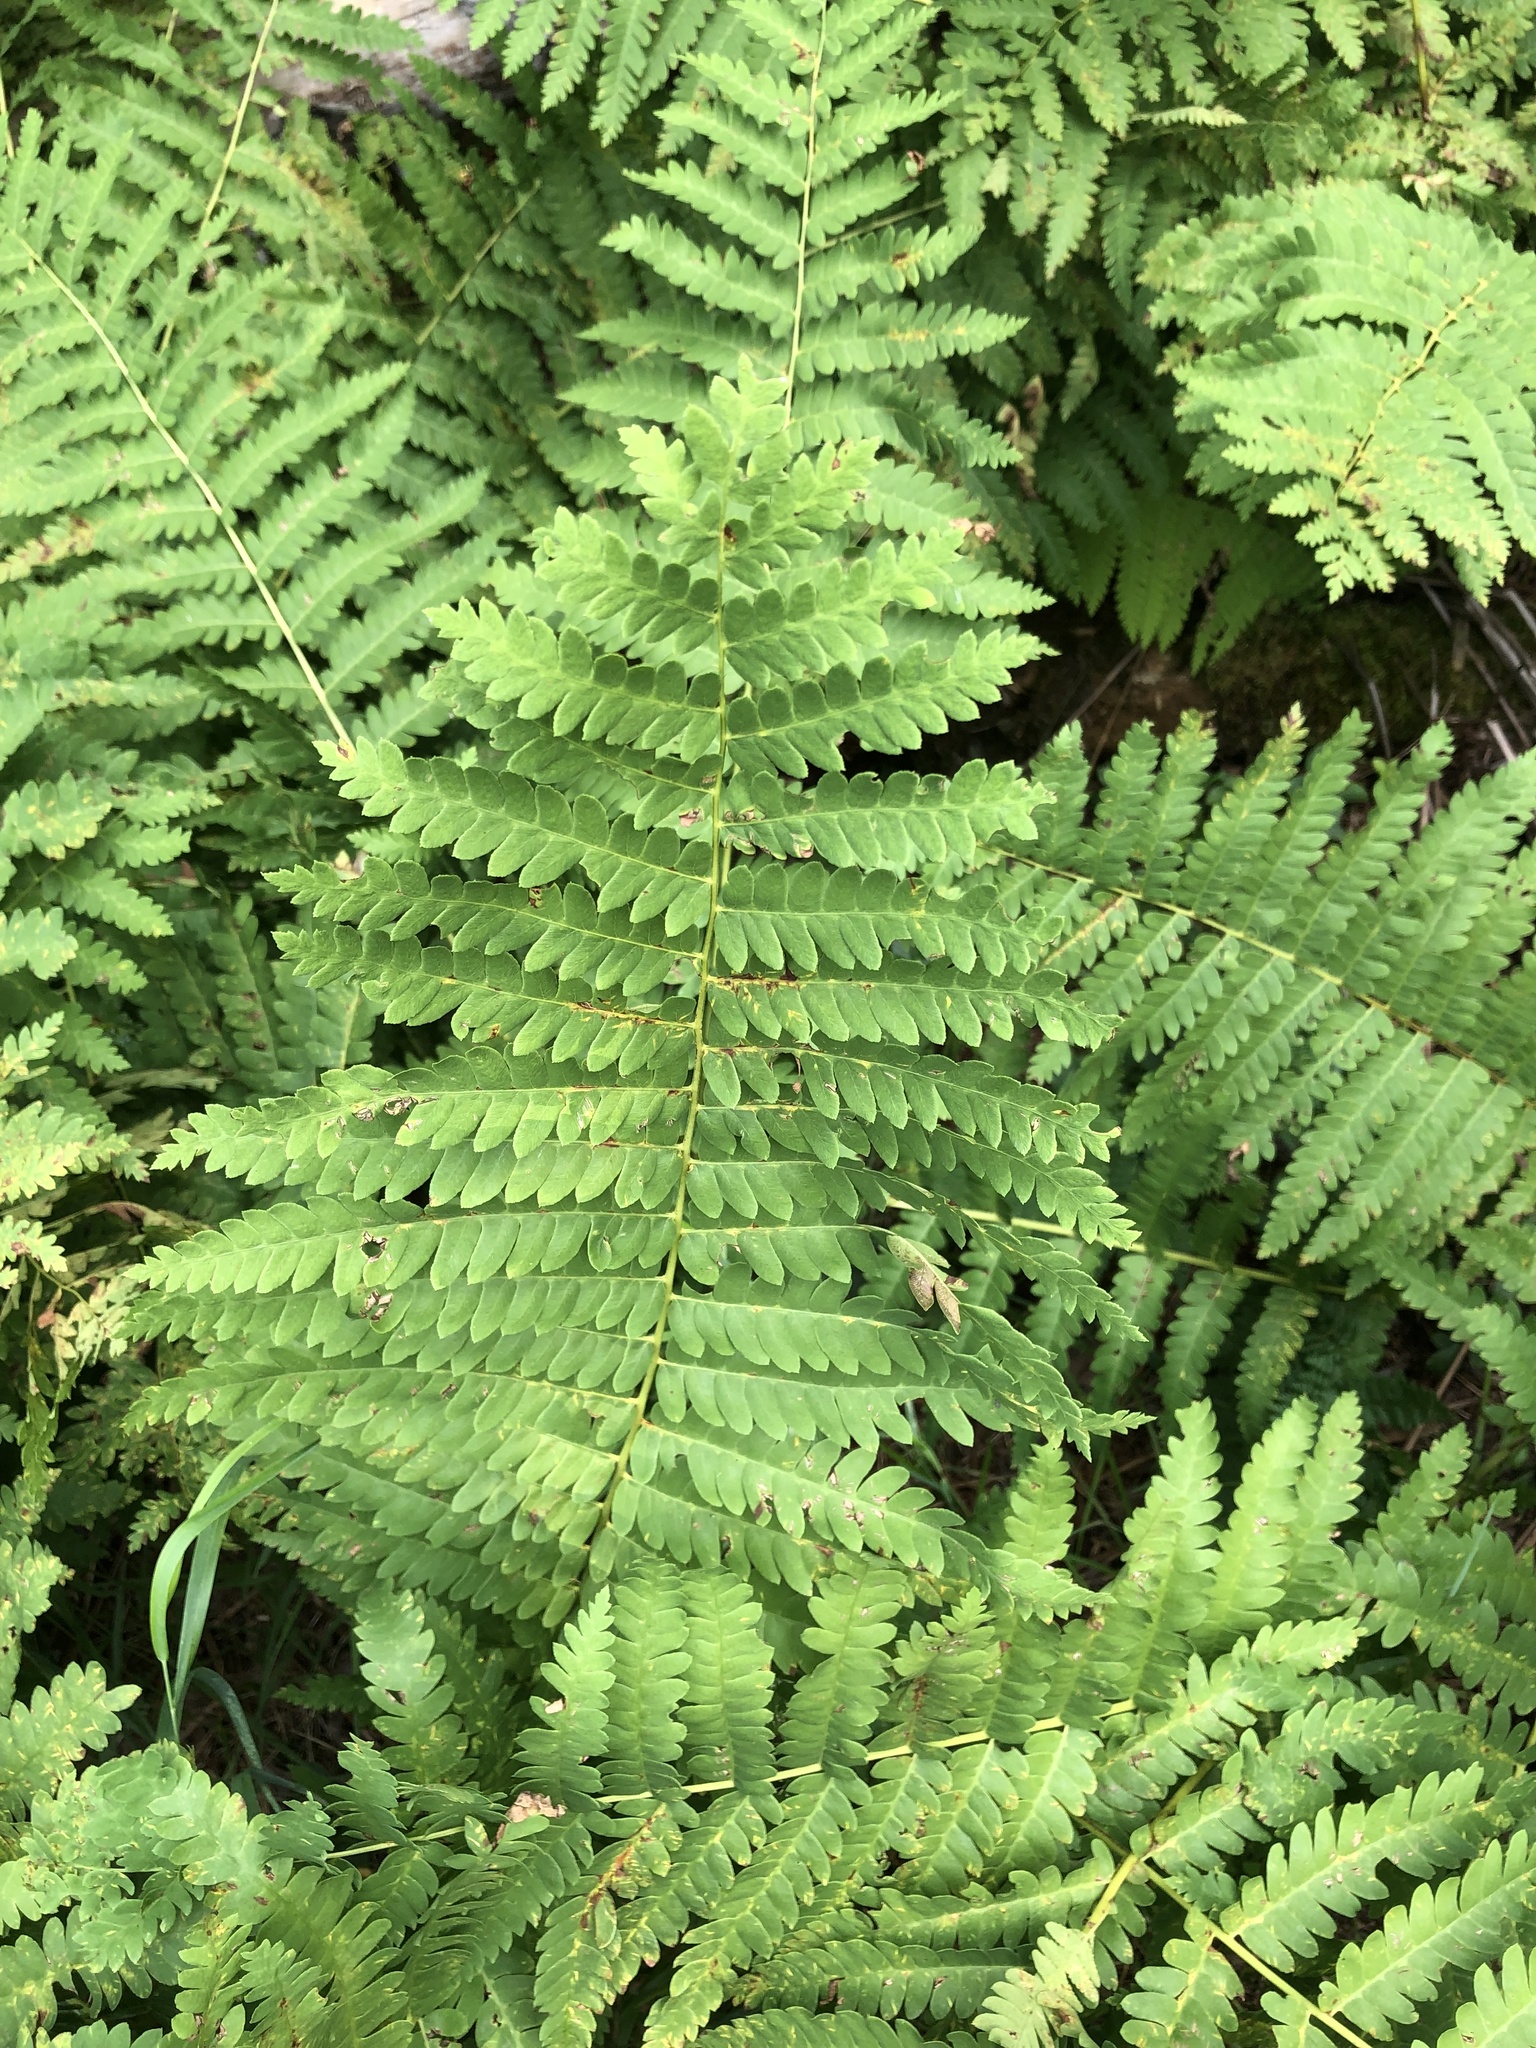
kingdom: Plantae
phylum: Tracheophyta
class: Polypodiopsida
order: Osmundales
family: Osmundaceae
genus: Claytosmunda
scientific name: Claytosmunda claytoniana
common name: Clayton's fern
